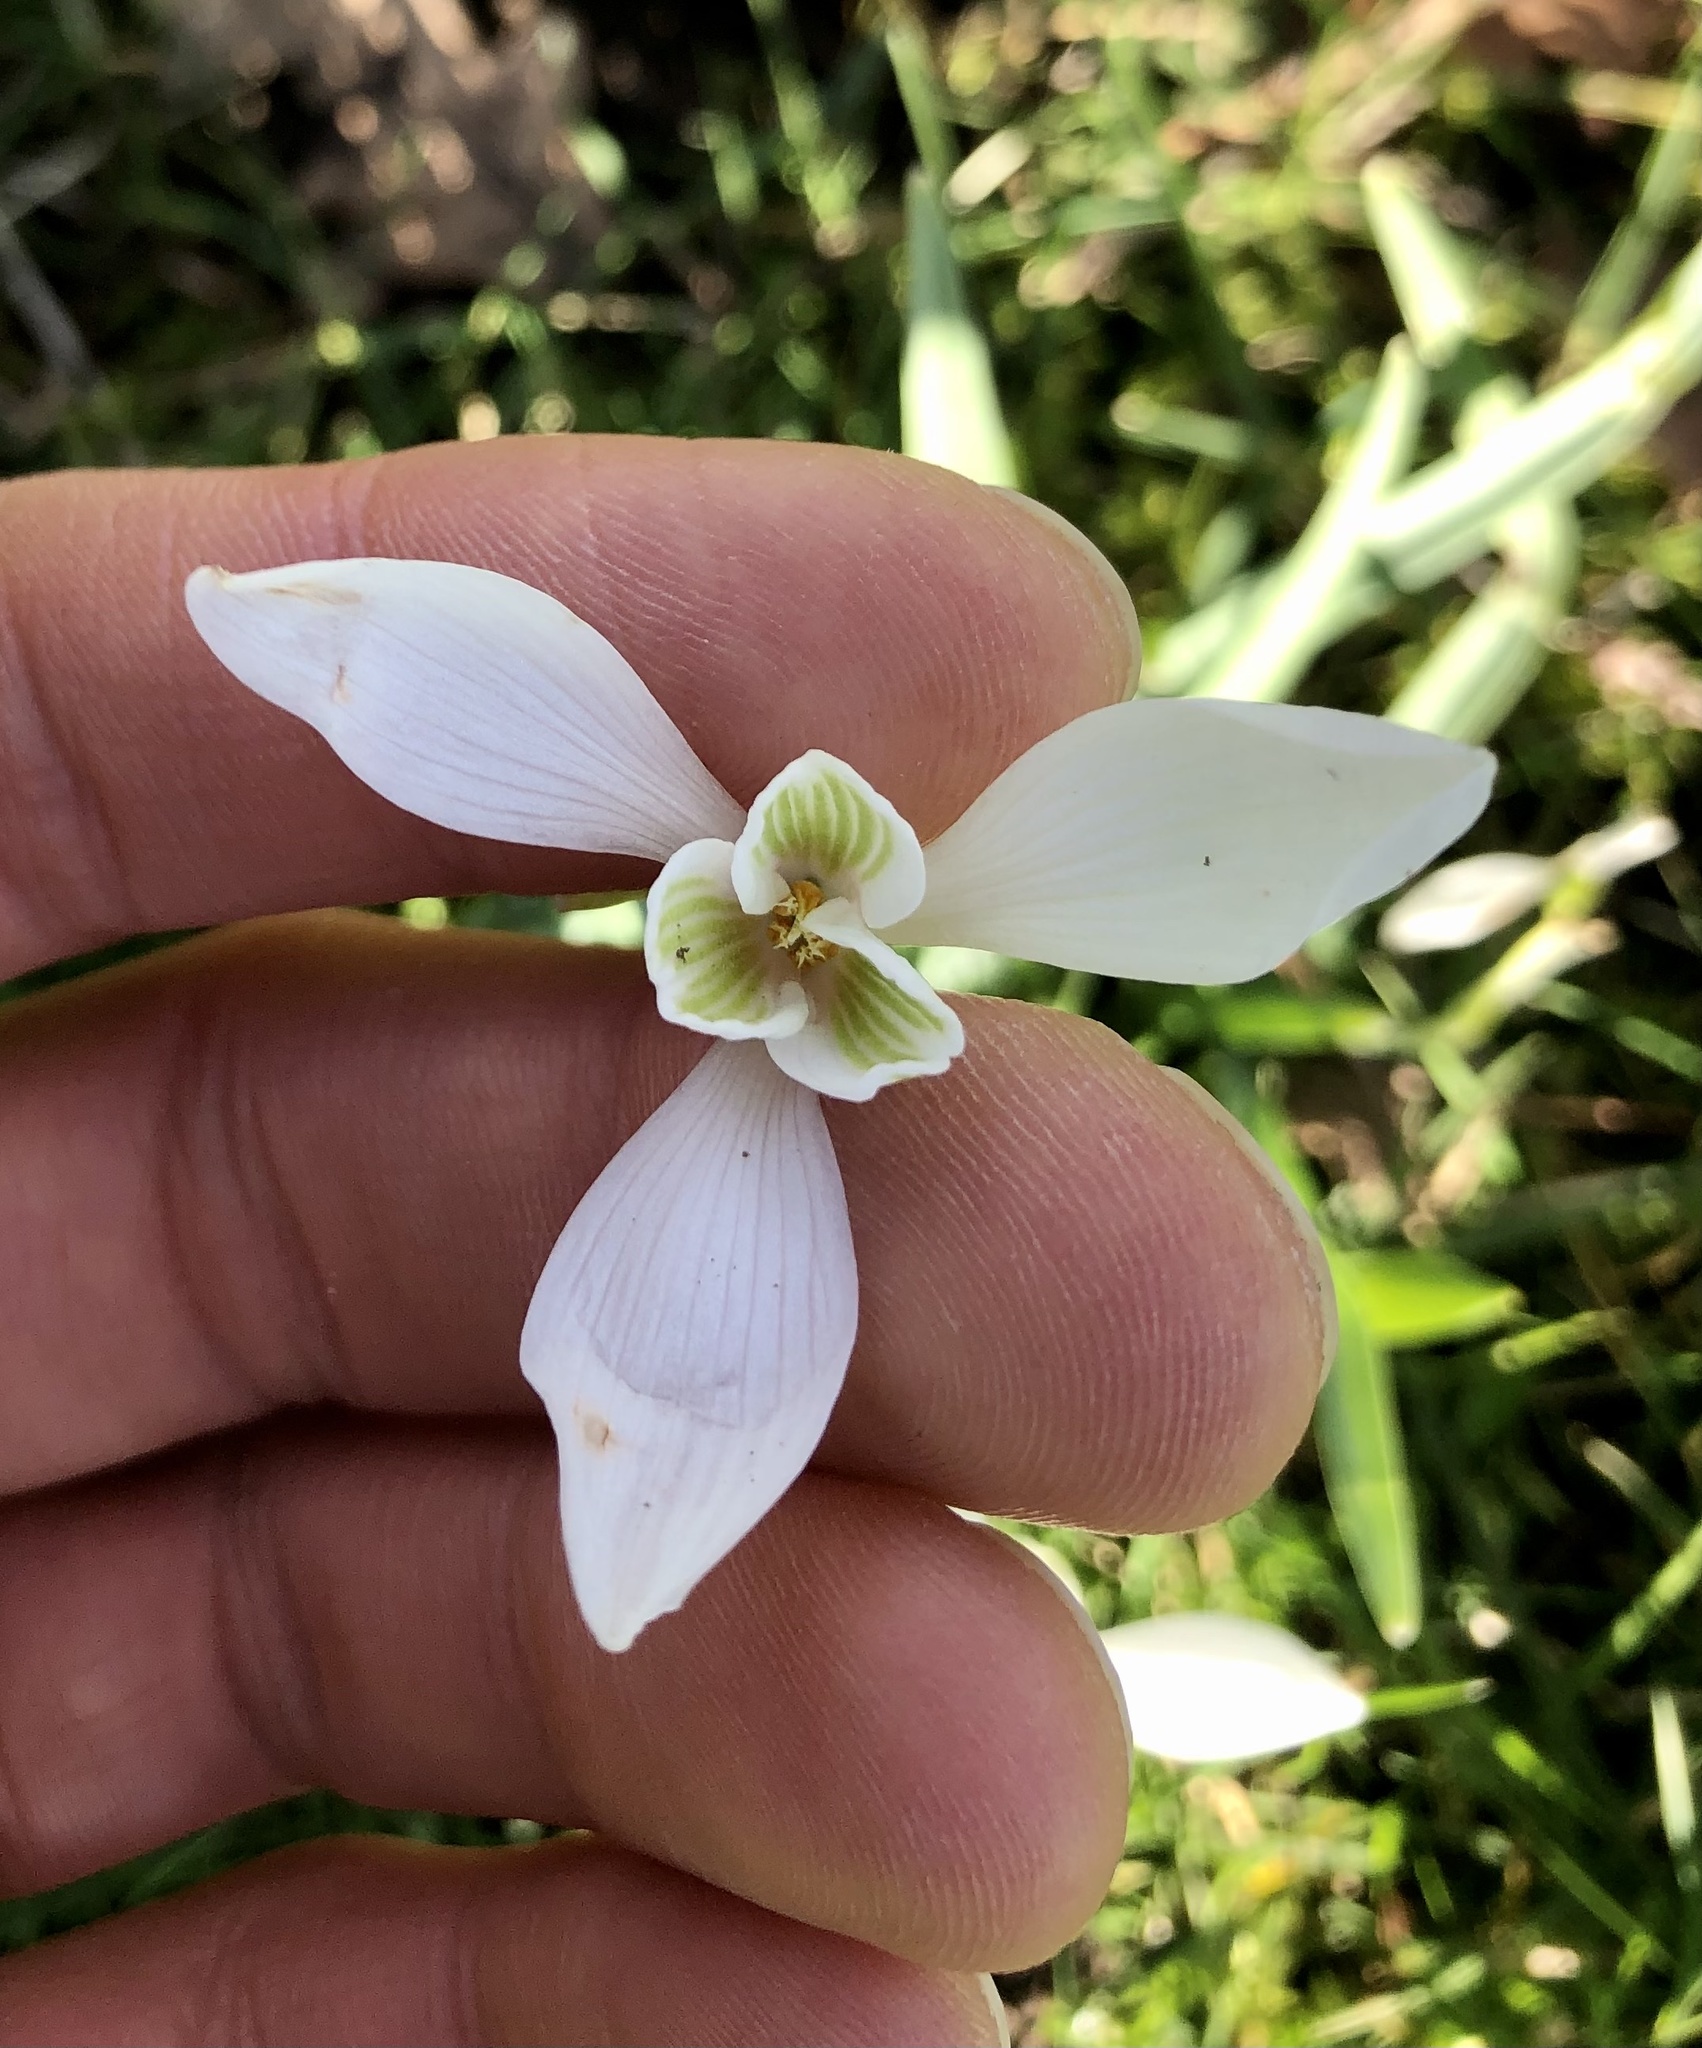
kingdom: Plantae
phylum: Tracheophyta
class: Liliopsida
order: Asparagales
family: Amaryllidaceae
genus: Galanthus
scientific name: Galanthus nivalis
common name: Snowdrop
